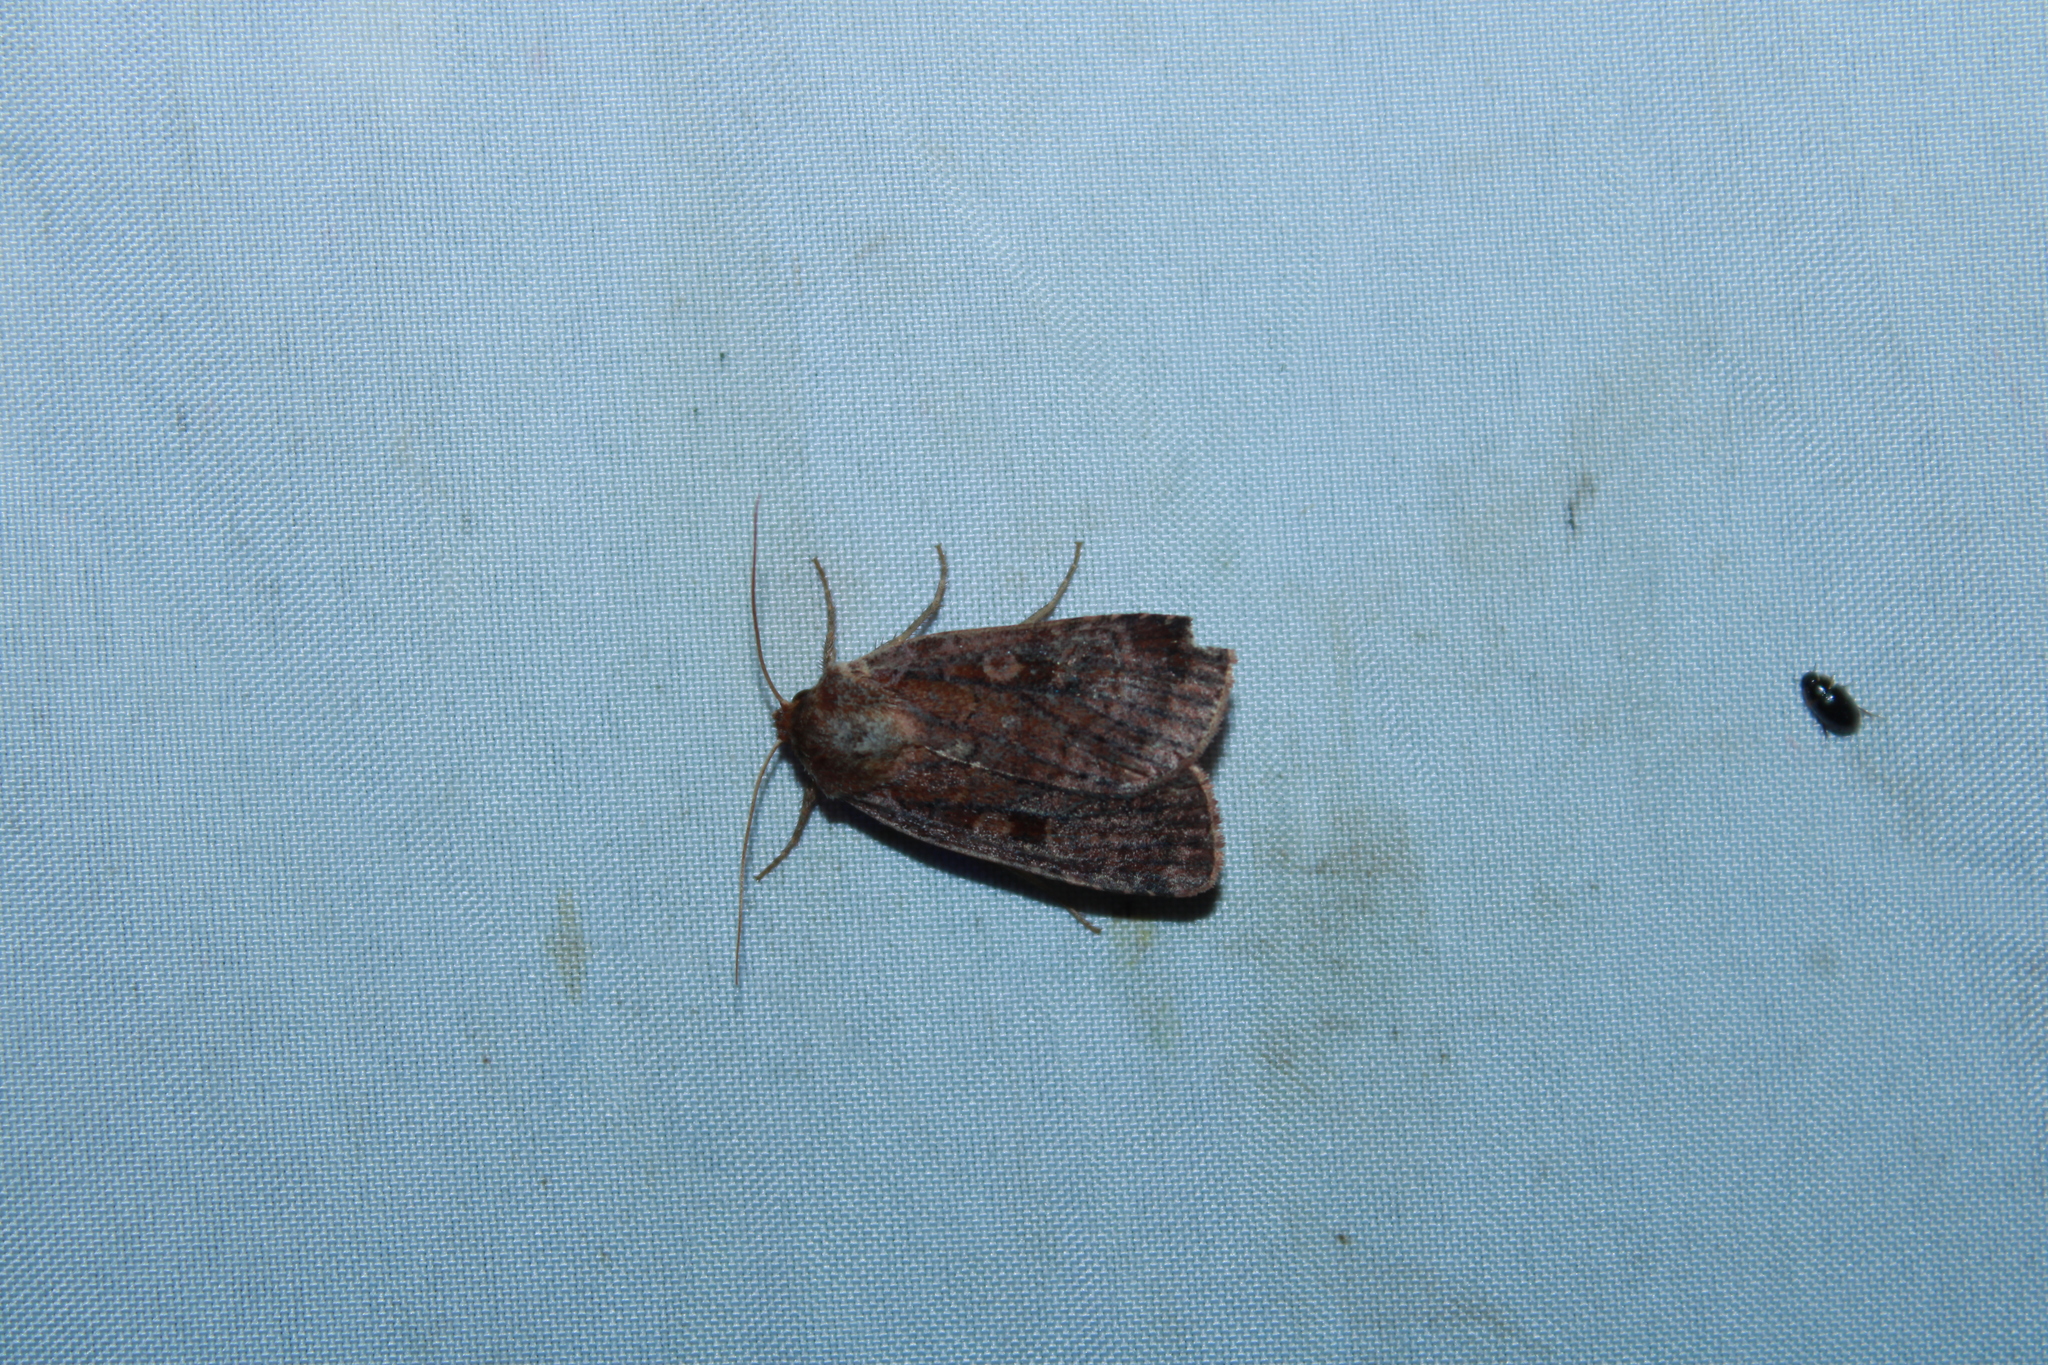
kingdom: Animalia
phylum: Arthropoda
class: Insecta
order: Lepidoptera
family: Noctuidae
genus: Lycophotia
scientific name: Lycophotia phyllophora
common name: Lycophotia moth
